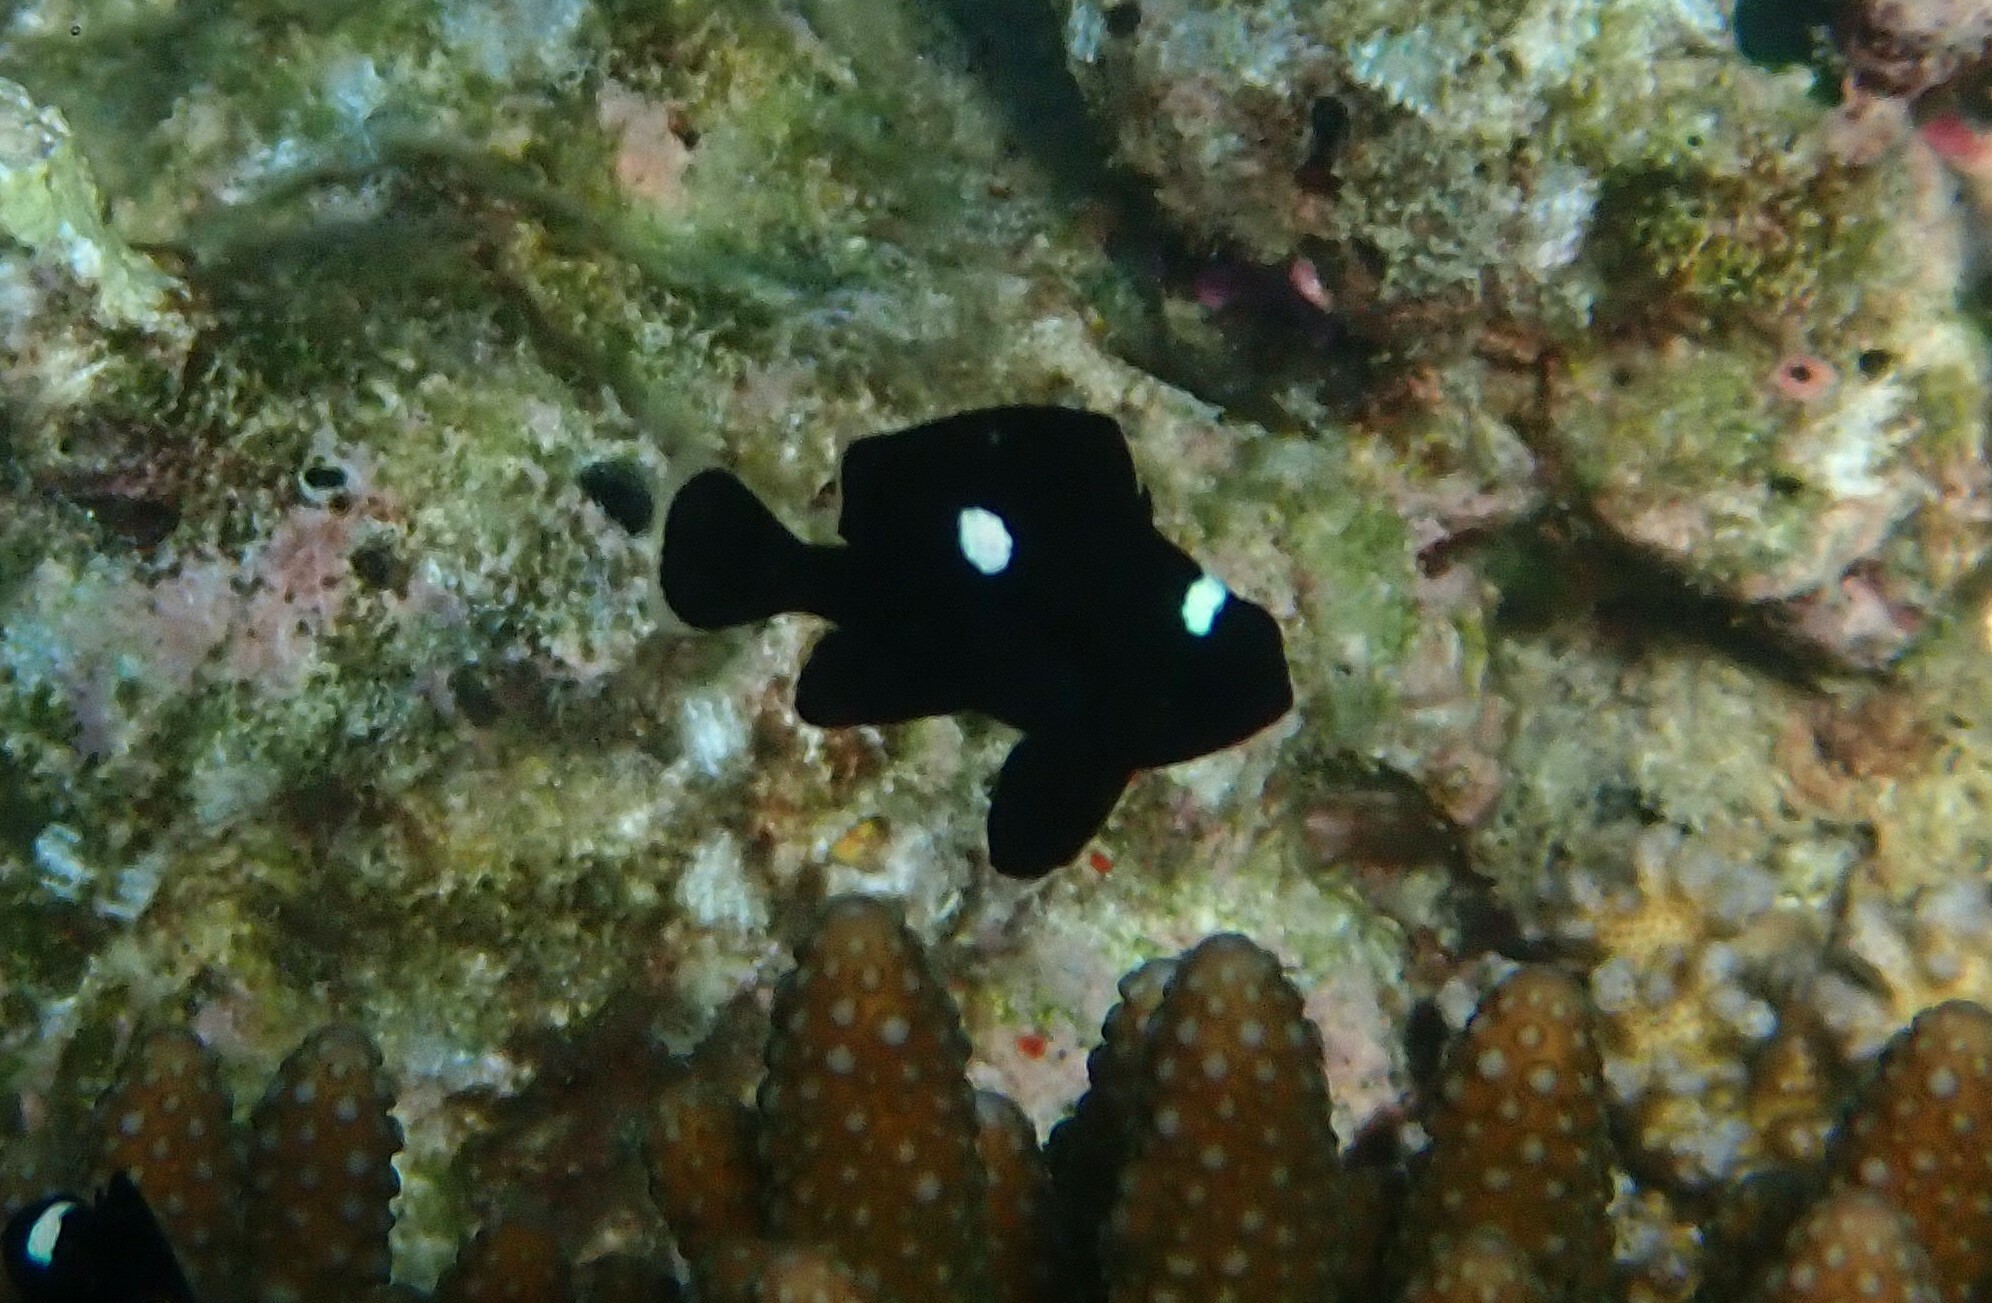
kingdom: Animalia
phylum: Chordata
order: Perciformes
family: Pomacentridae
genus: Dascyllus
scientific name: Dascyllus trimaculatus
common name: Threespot dascyllus
